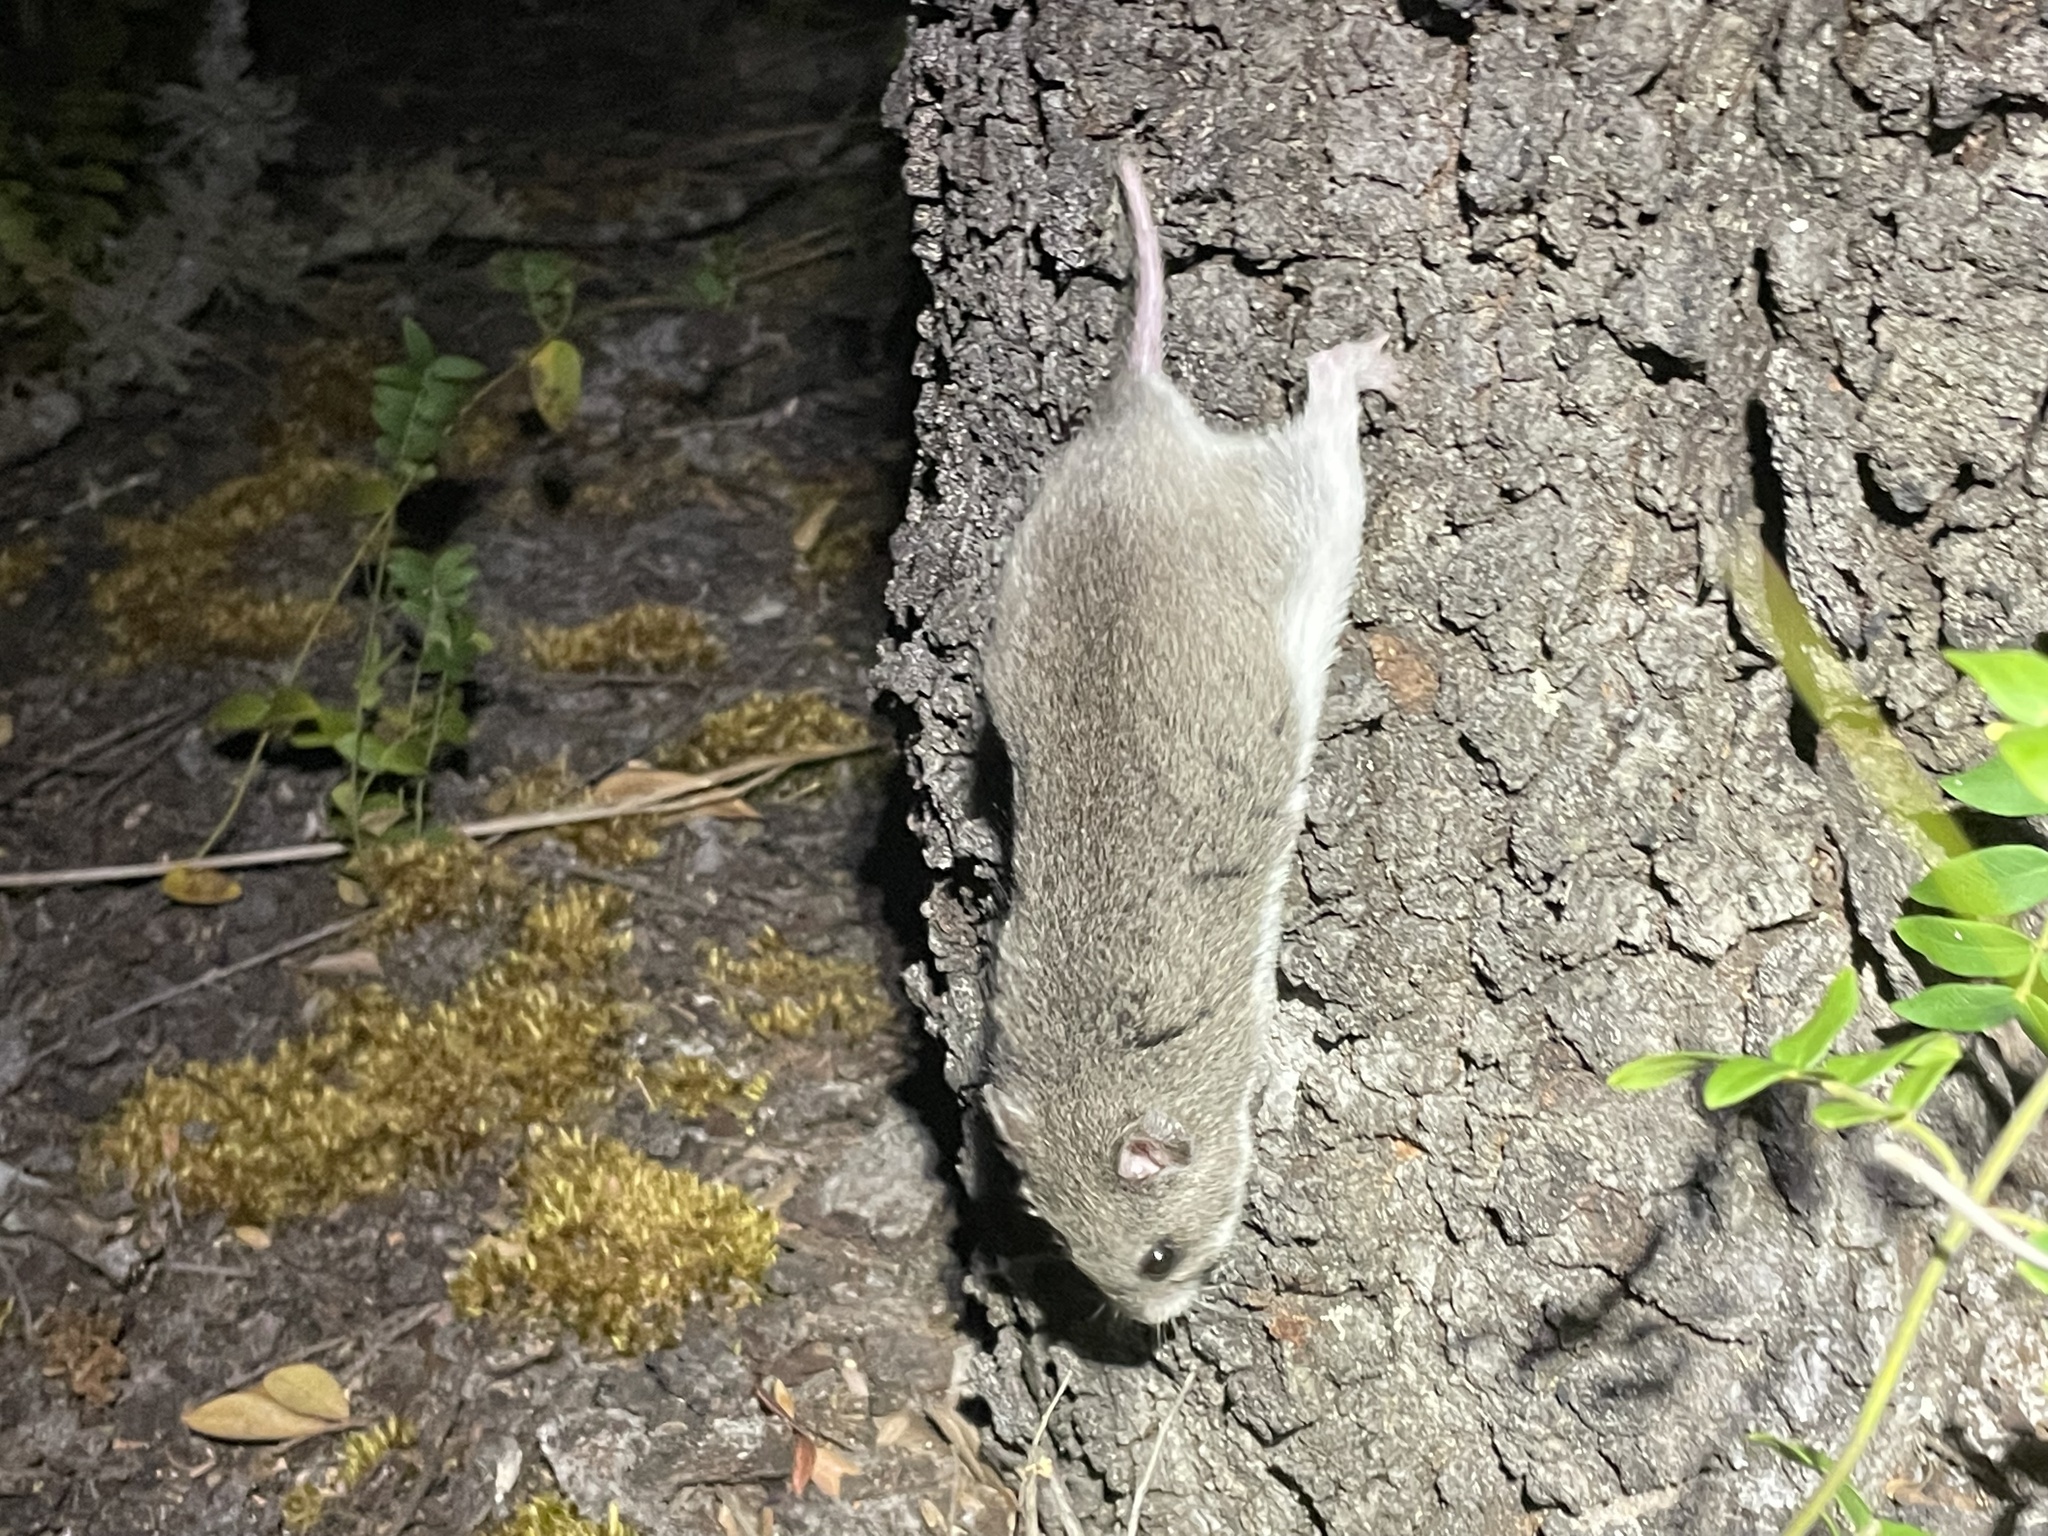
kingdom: Animalia
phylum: Chordata
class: Mammalia
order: Rodentia
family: Nesomyidae
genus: Saccostomus
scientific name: Saccostomus campestris
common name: Southern african pouched mouse
